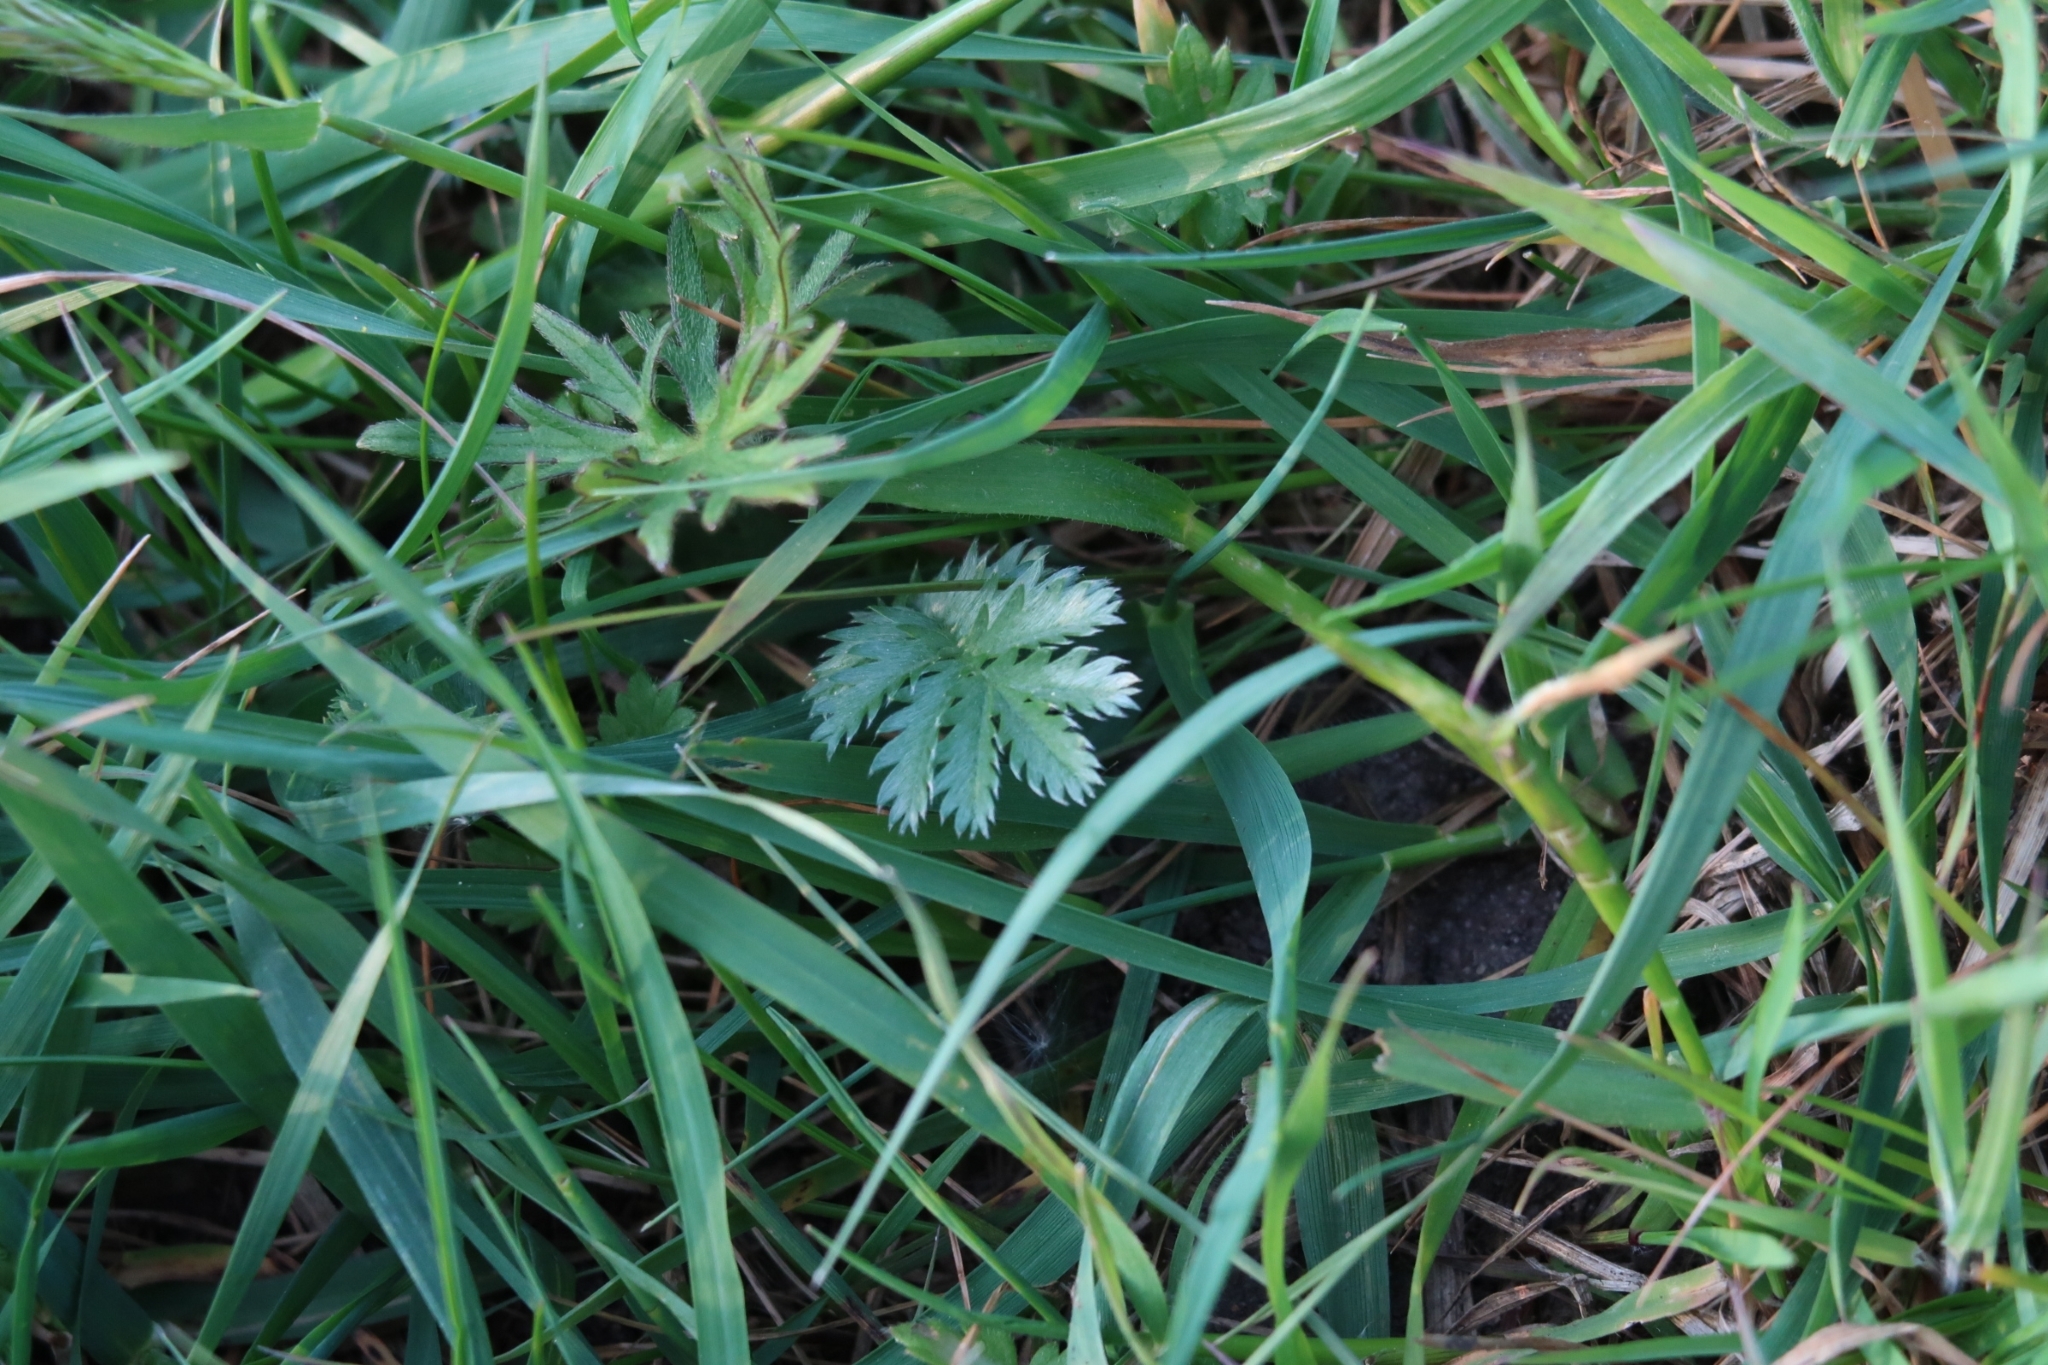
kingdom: Plantae
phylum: Tracheophyta
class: Magnoliopsida
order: Rosales
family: Rosaceae
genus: Argentina
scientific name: Argentina anserina
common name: Common silverweed
